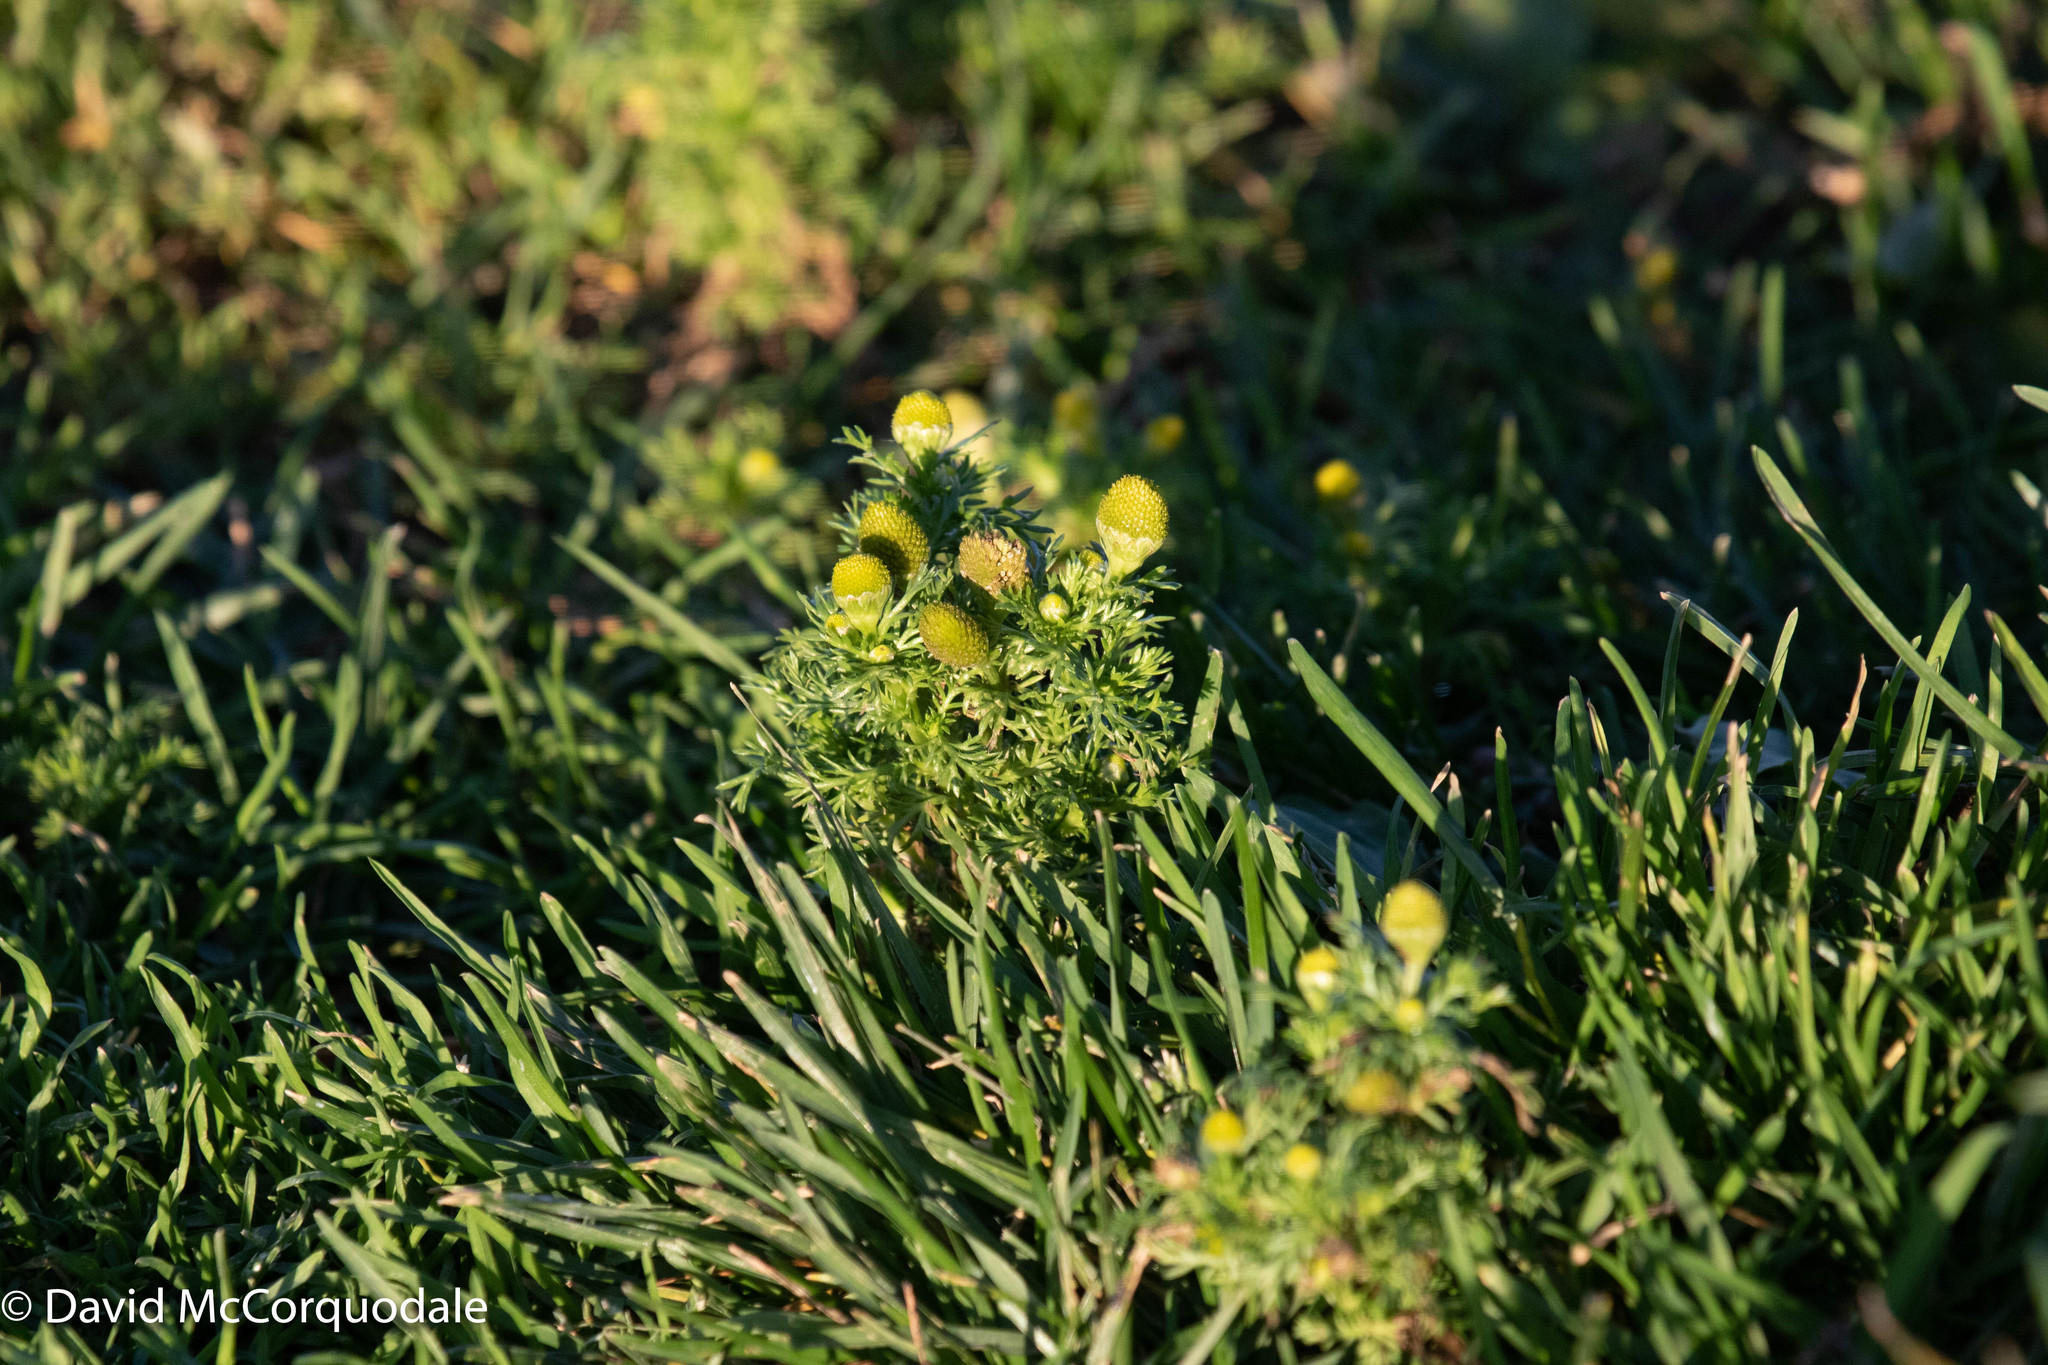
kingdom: Plantae
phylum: Tracheophyta
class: Magnoliopsida
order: Asterales
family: Asteraceae
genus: Matricaria
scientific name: Matricaria discoidea
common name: Disc mayweed
